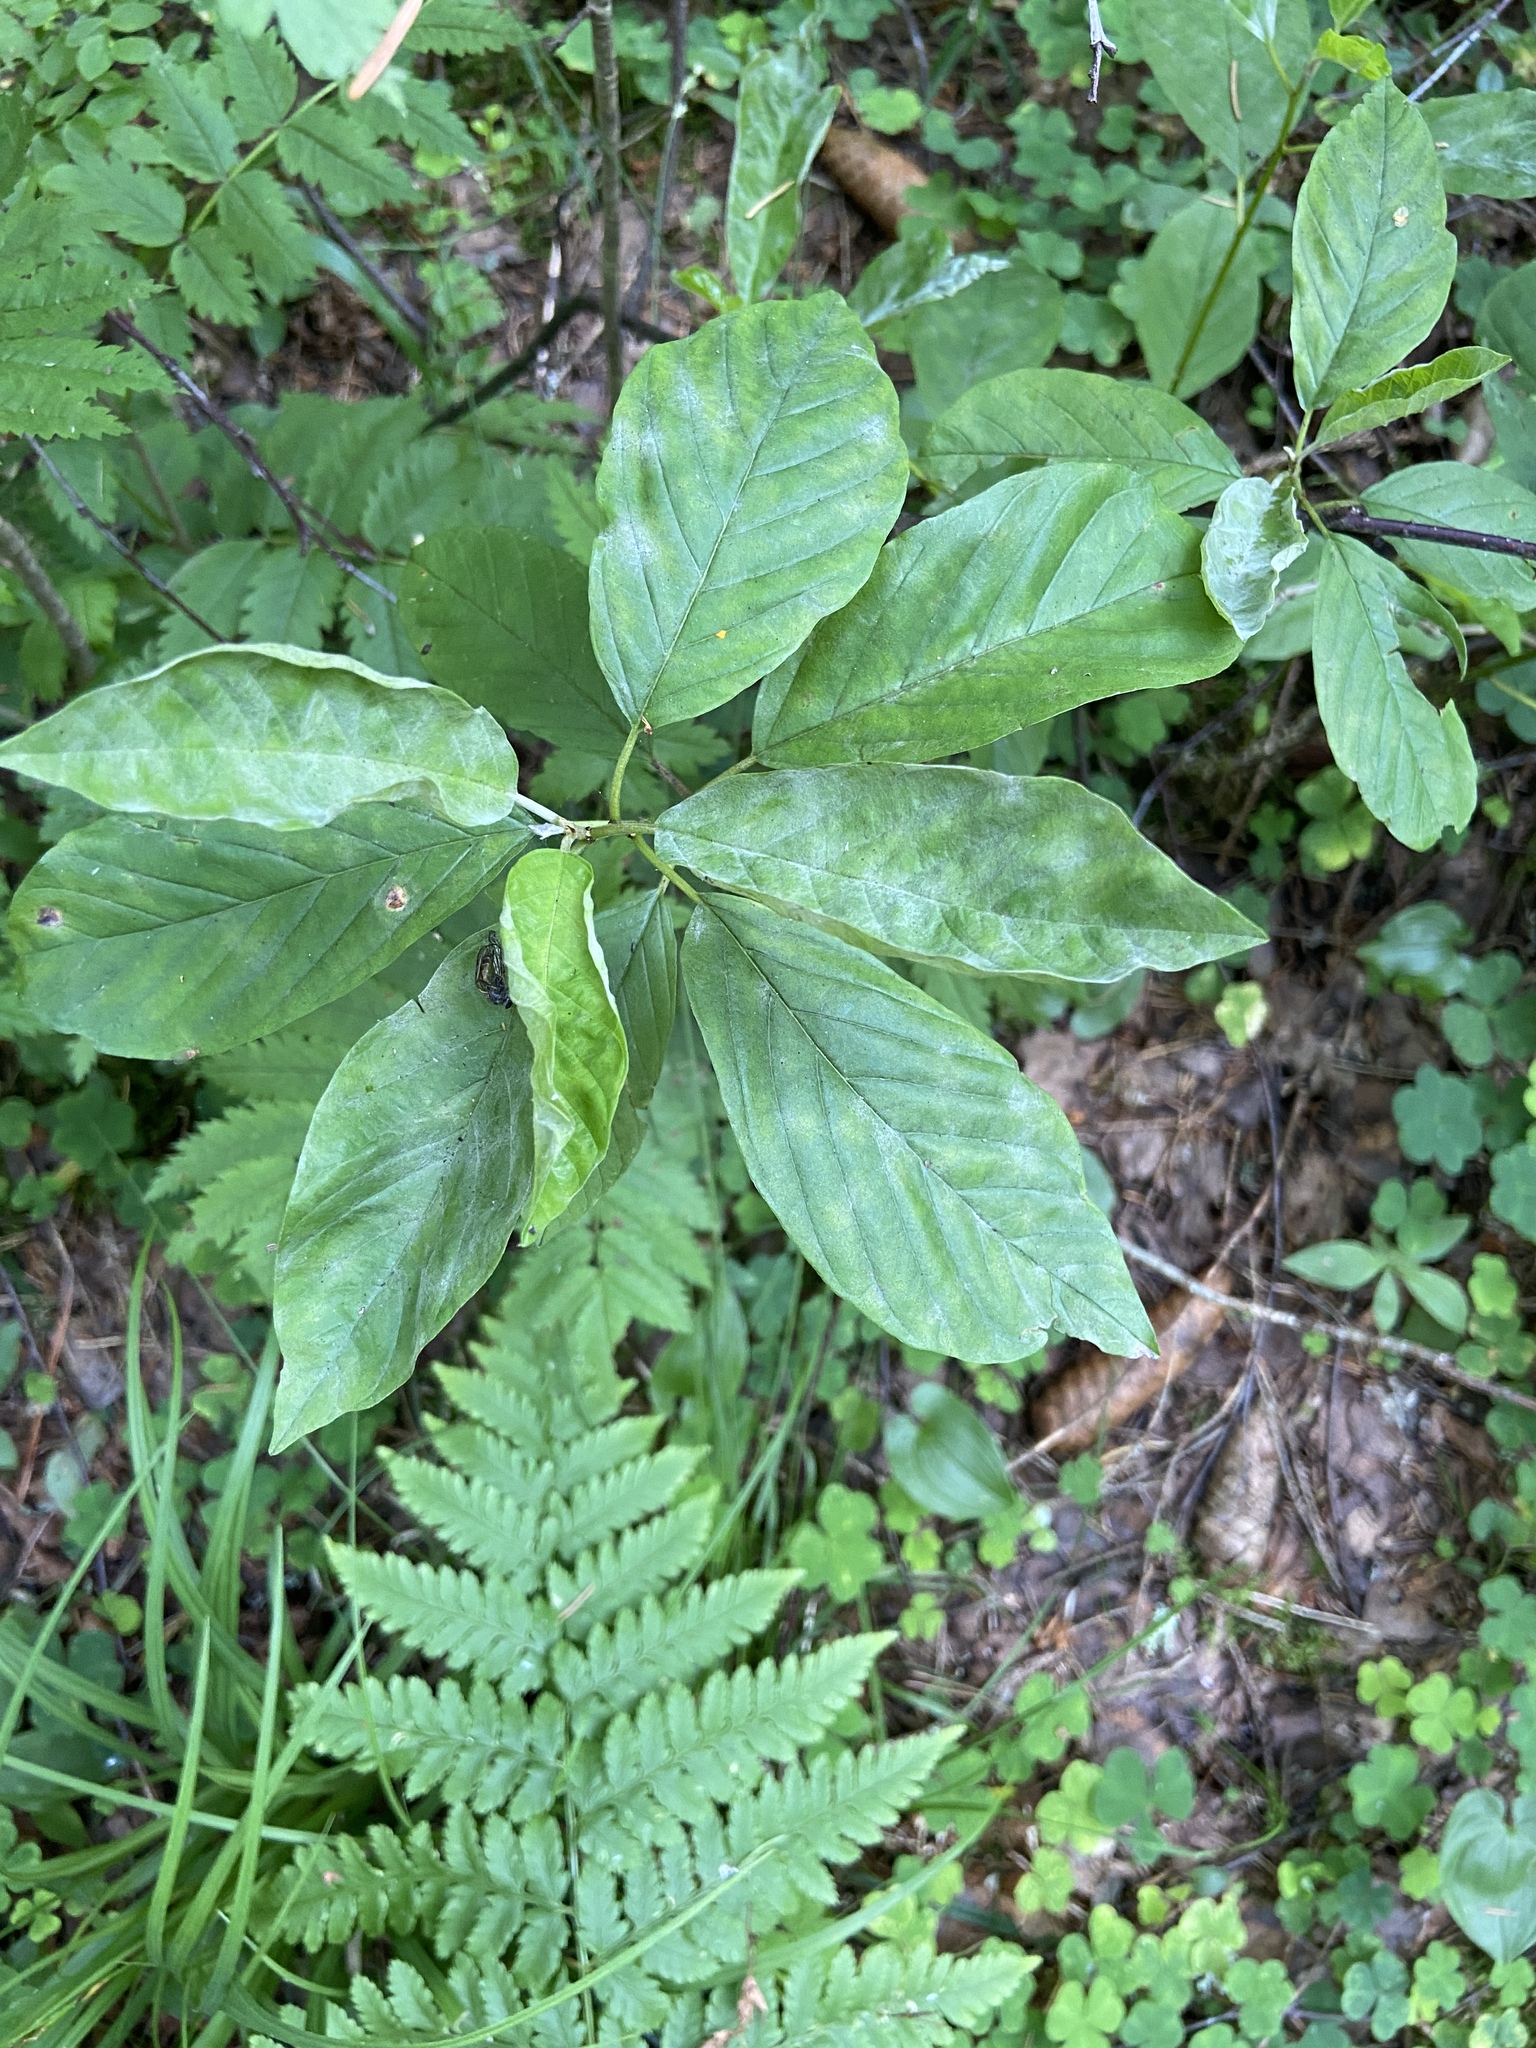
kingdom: Plantae
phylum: Tracheophyta
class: Magnoliopsida
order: Rosales
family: Rhamnaceae
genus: Frangula
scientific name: Frangula alnus
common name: Alder buckthorn
